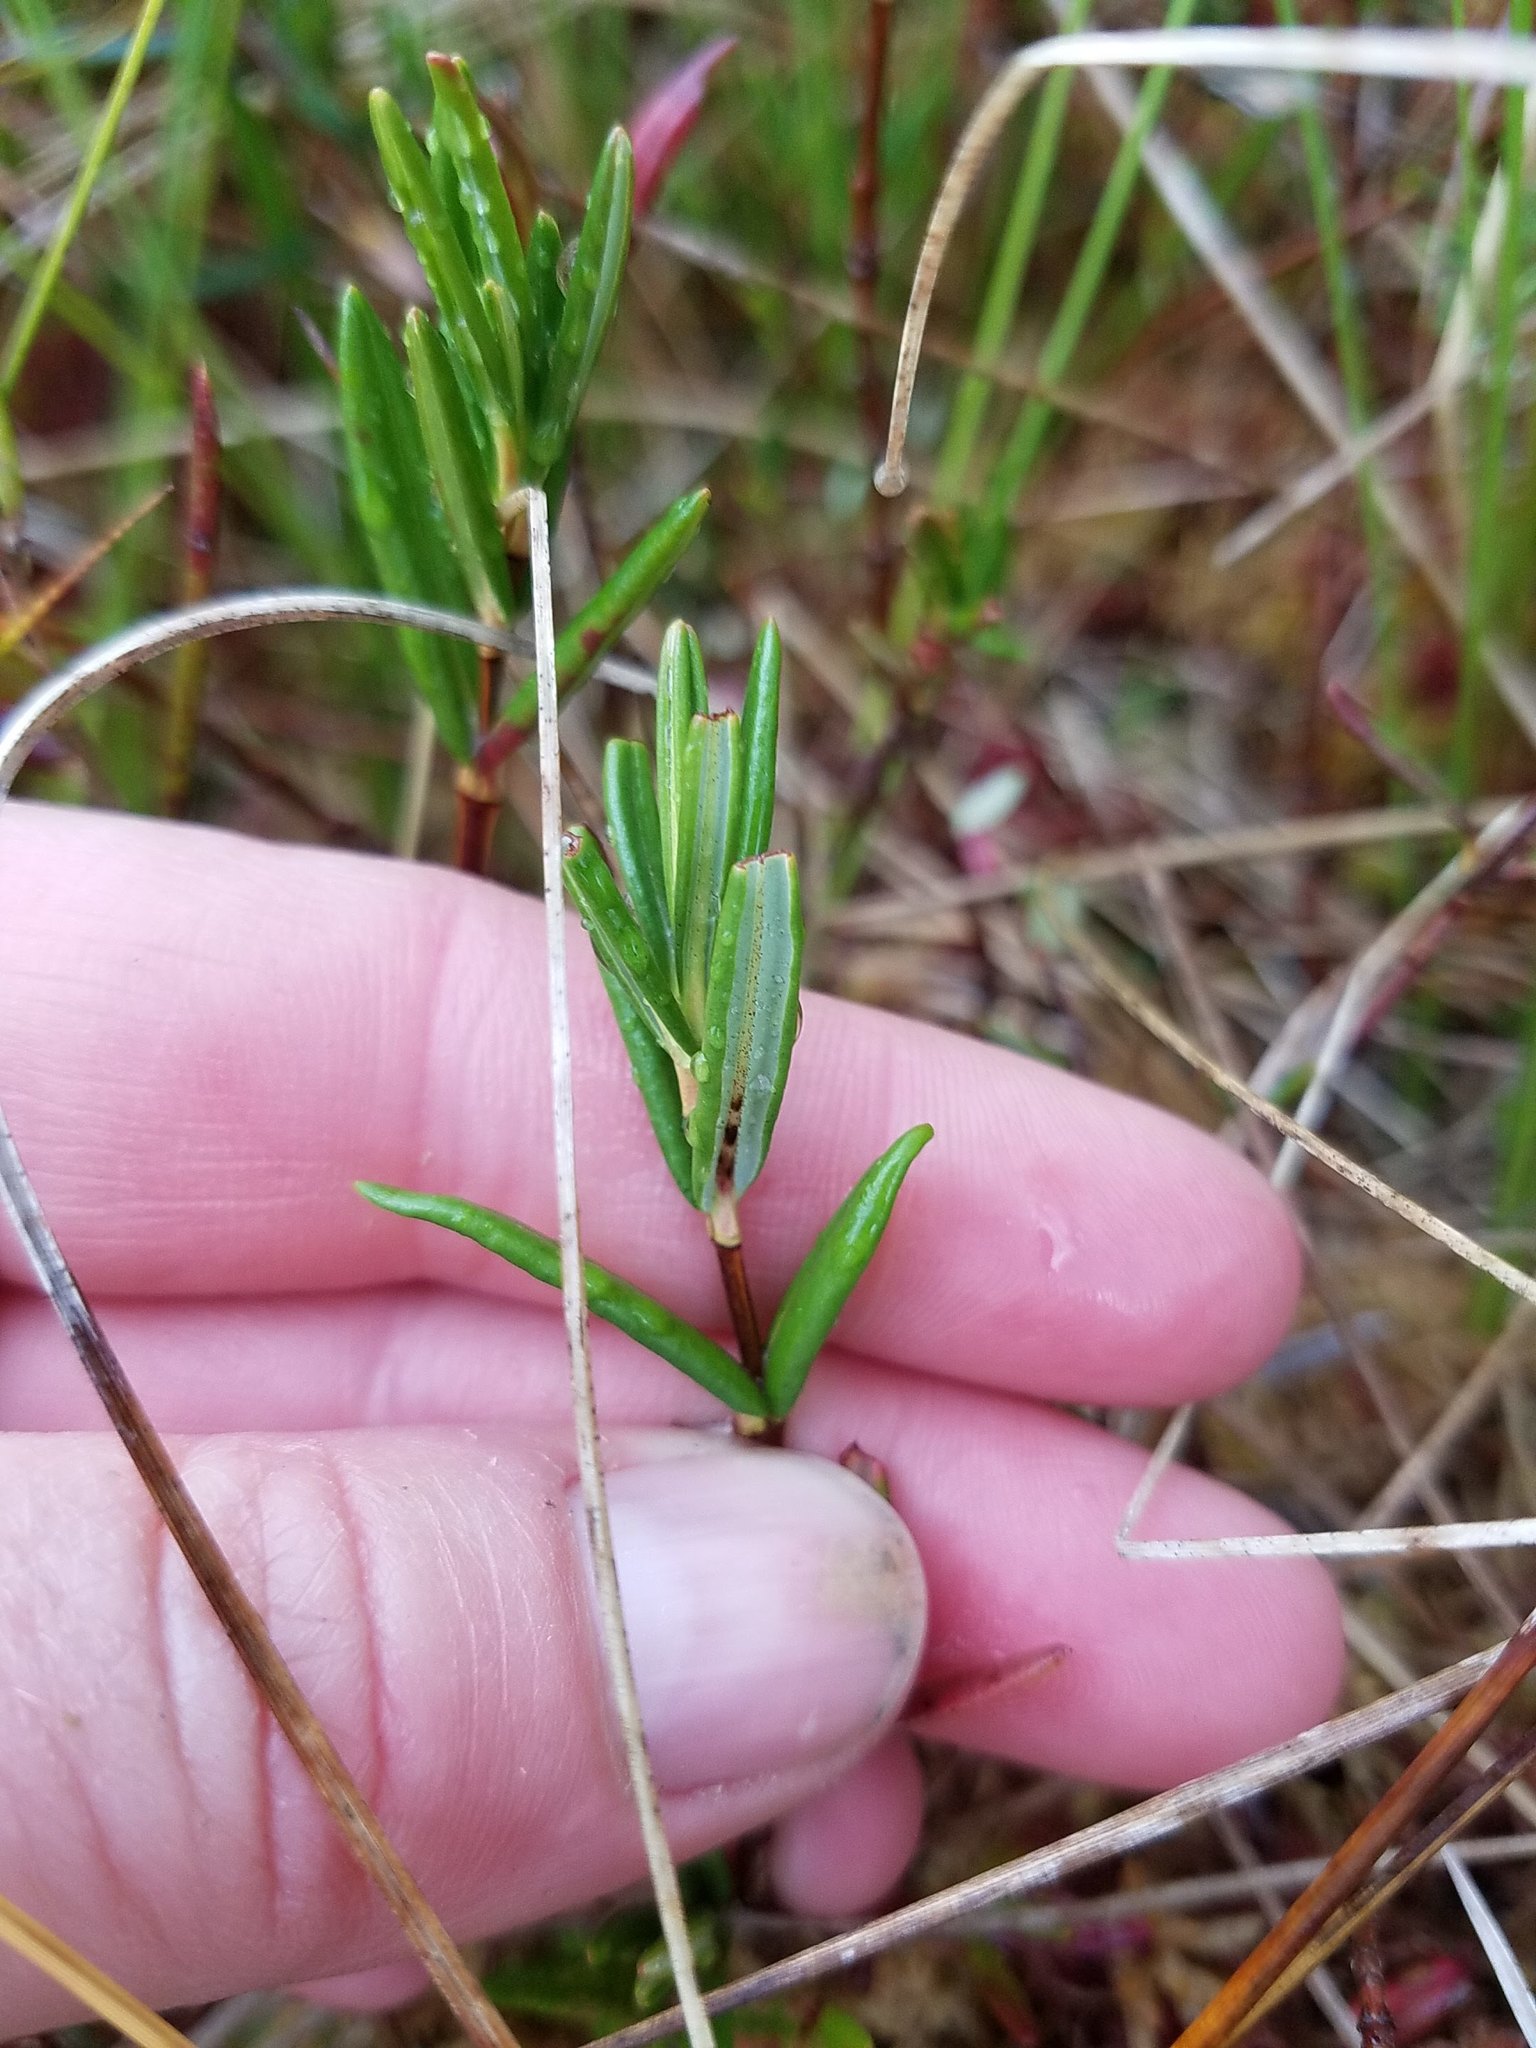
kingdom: Plantae
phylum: Tracheophyta
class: Magnoliopsida
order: Ericales
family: Ericaceae
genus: Kalmia
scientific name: Kalmia polifolia
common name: Bog-laurel
